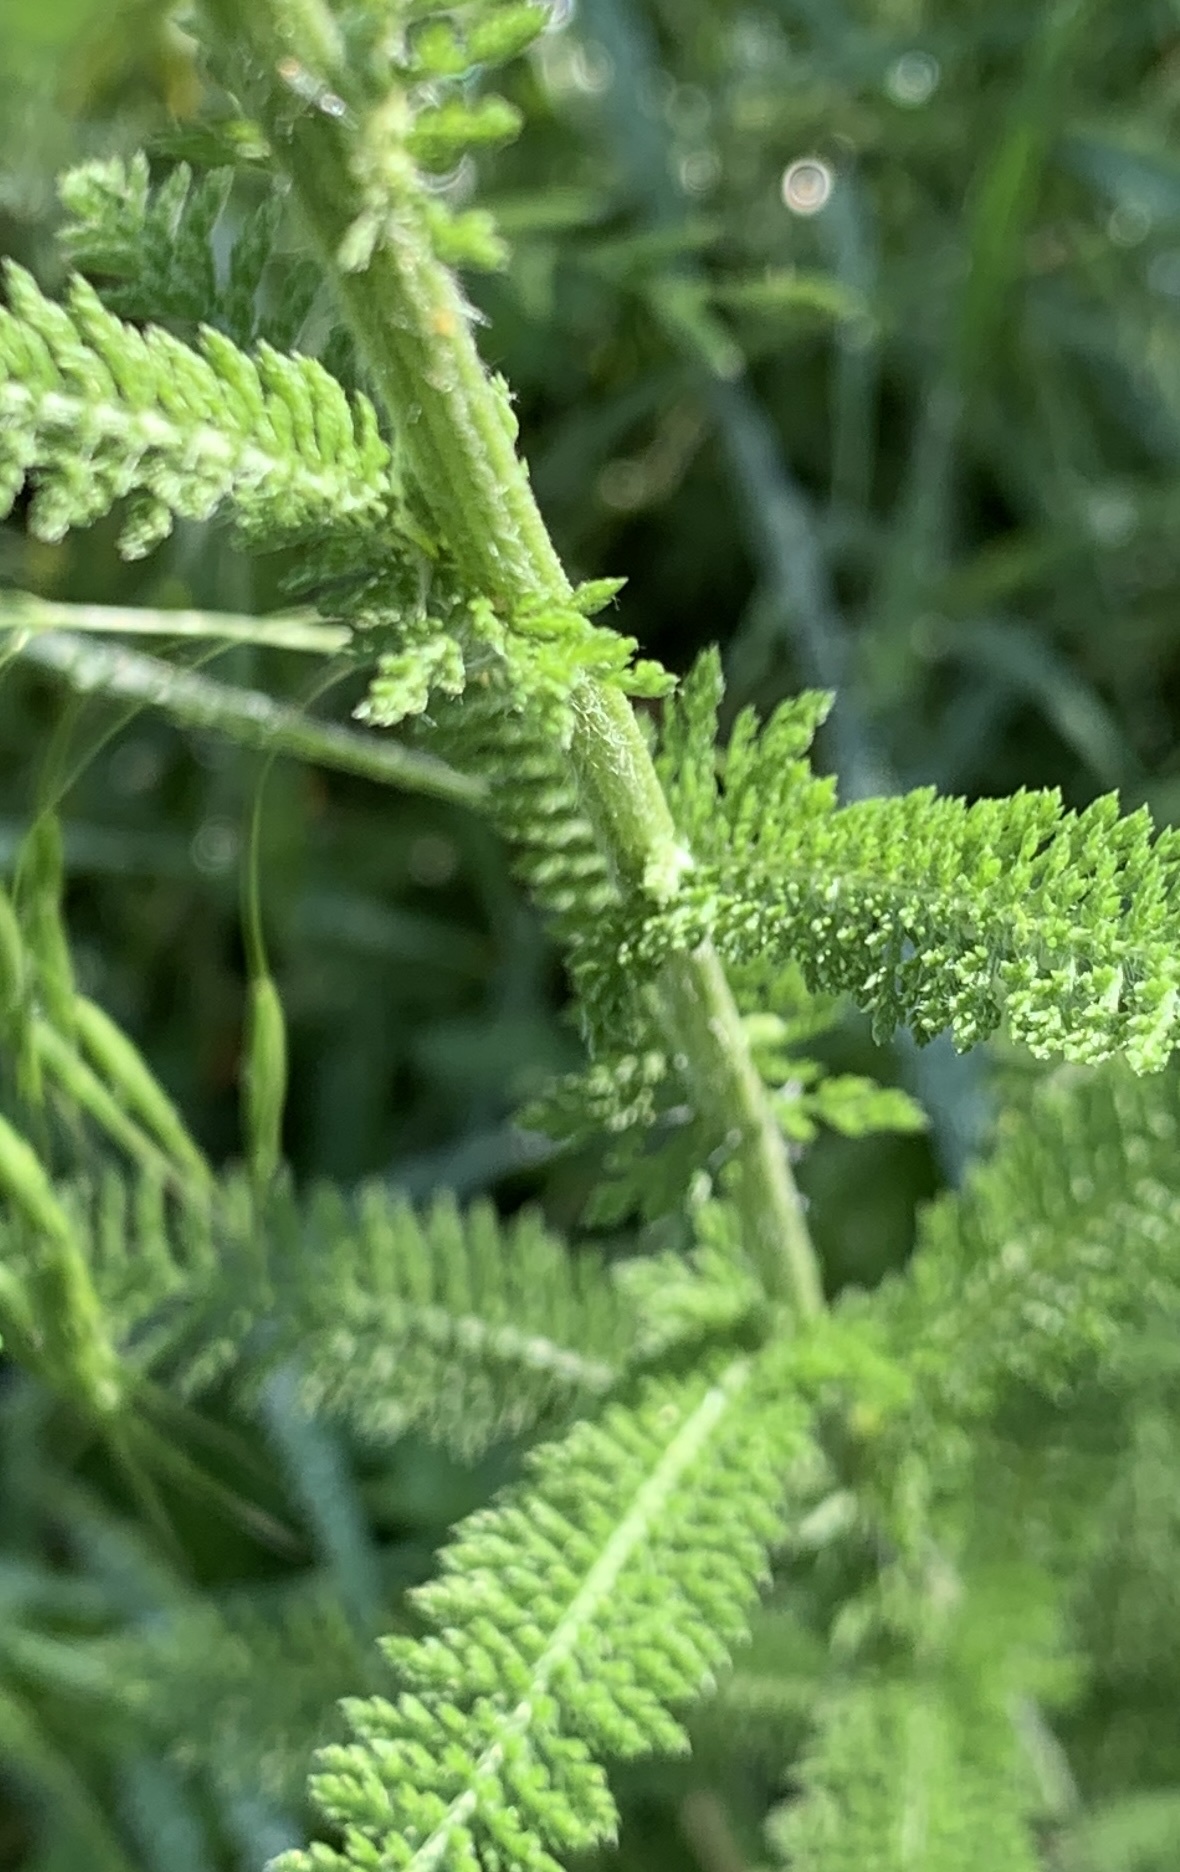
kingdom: Plantae
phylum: Tracheophyta
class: Magnoliopsida
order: Asterales
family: Asteraceae
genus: Achillea
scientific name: Achillea millefolium
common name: Yarrow
